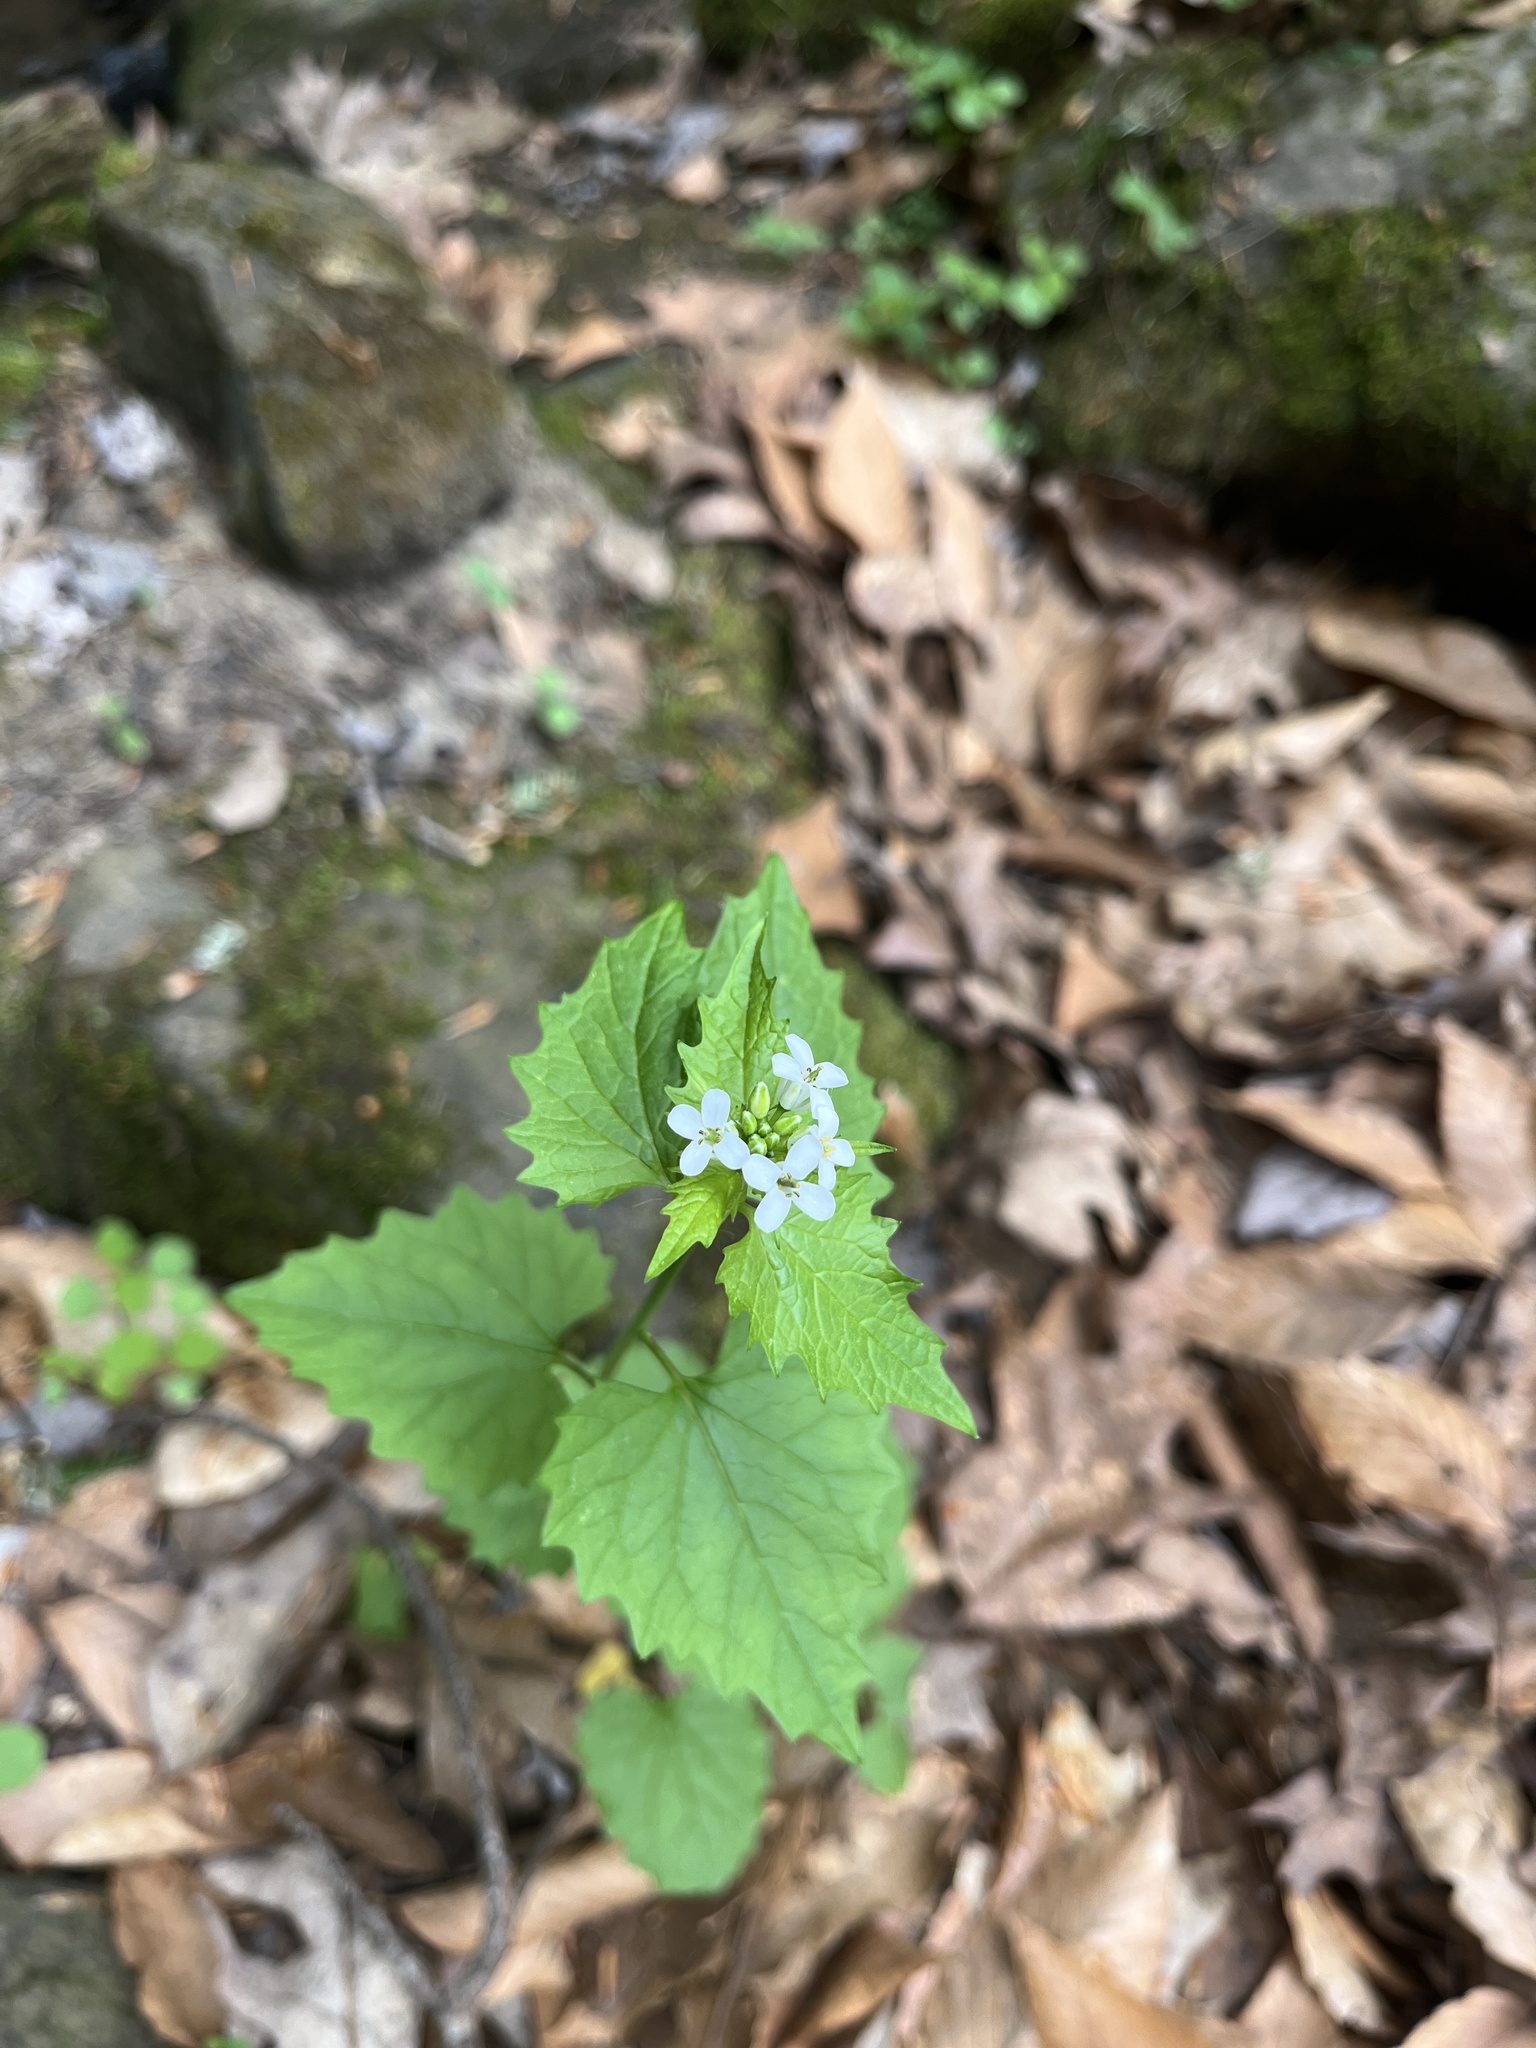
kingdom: Plantae
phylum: Tracheophyta
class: Magnoliopsida
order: Brassicales
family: Brassicaceae
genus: Alliaria
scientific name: Alliaria petiolata
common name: Garlic mustard
